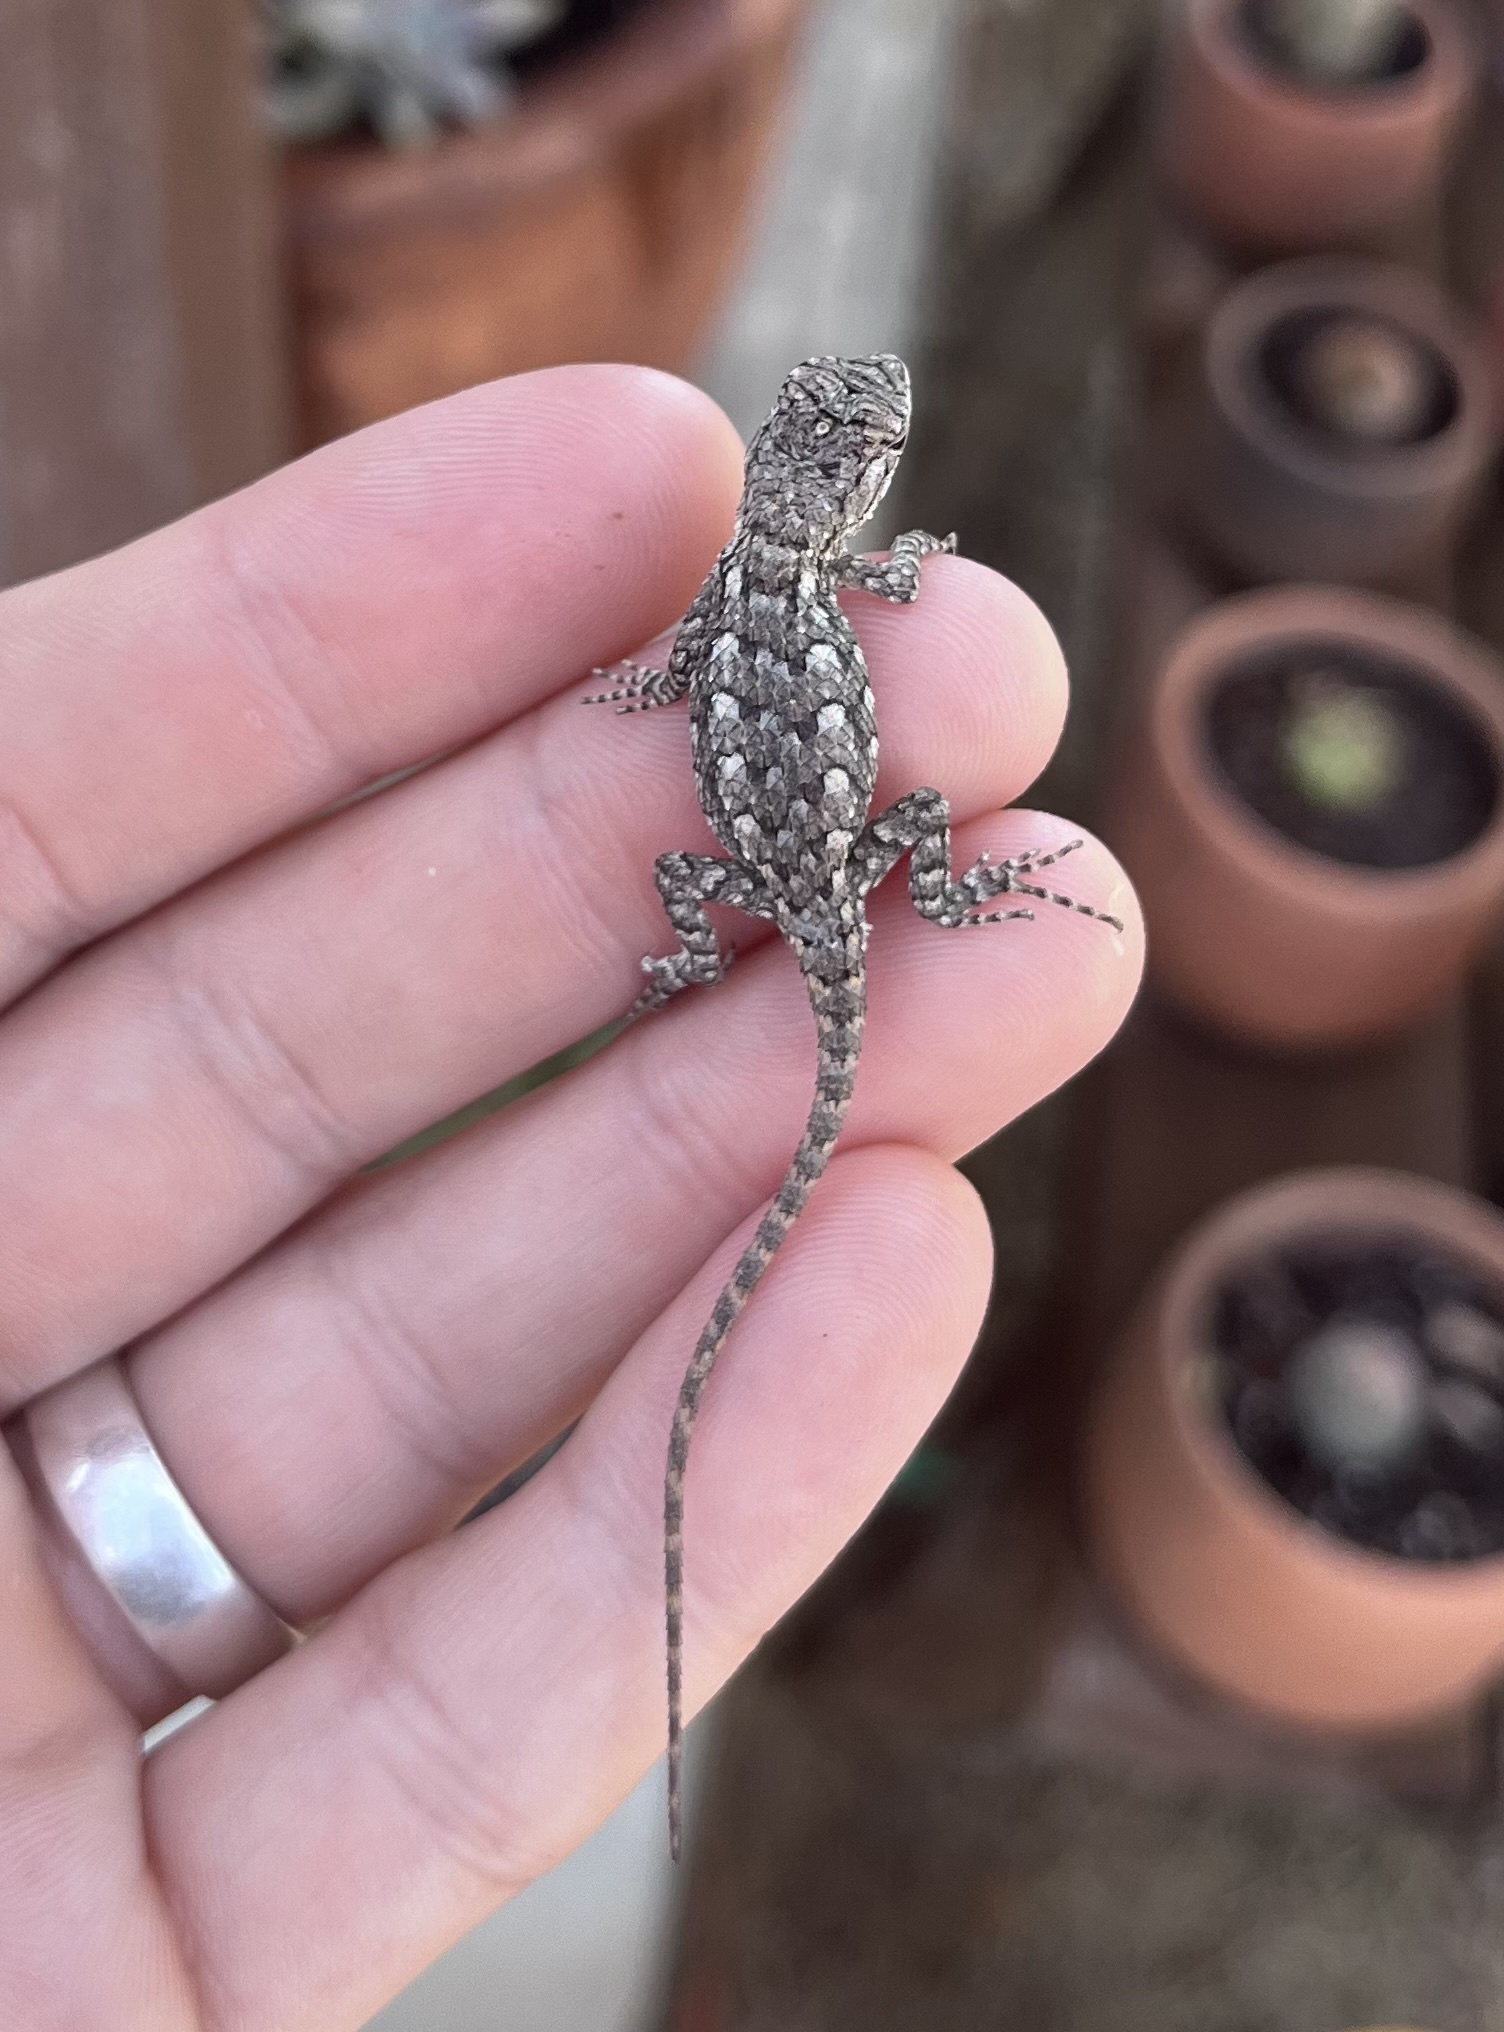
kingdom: Animalia
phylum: Chordata
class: Squamata
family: Phrynosomatidae
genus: Sceloporus
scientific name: Sceloporus olivaceus
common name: Texas spiny lizard
